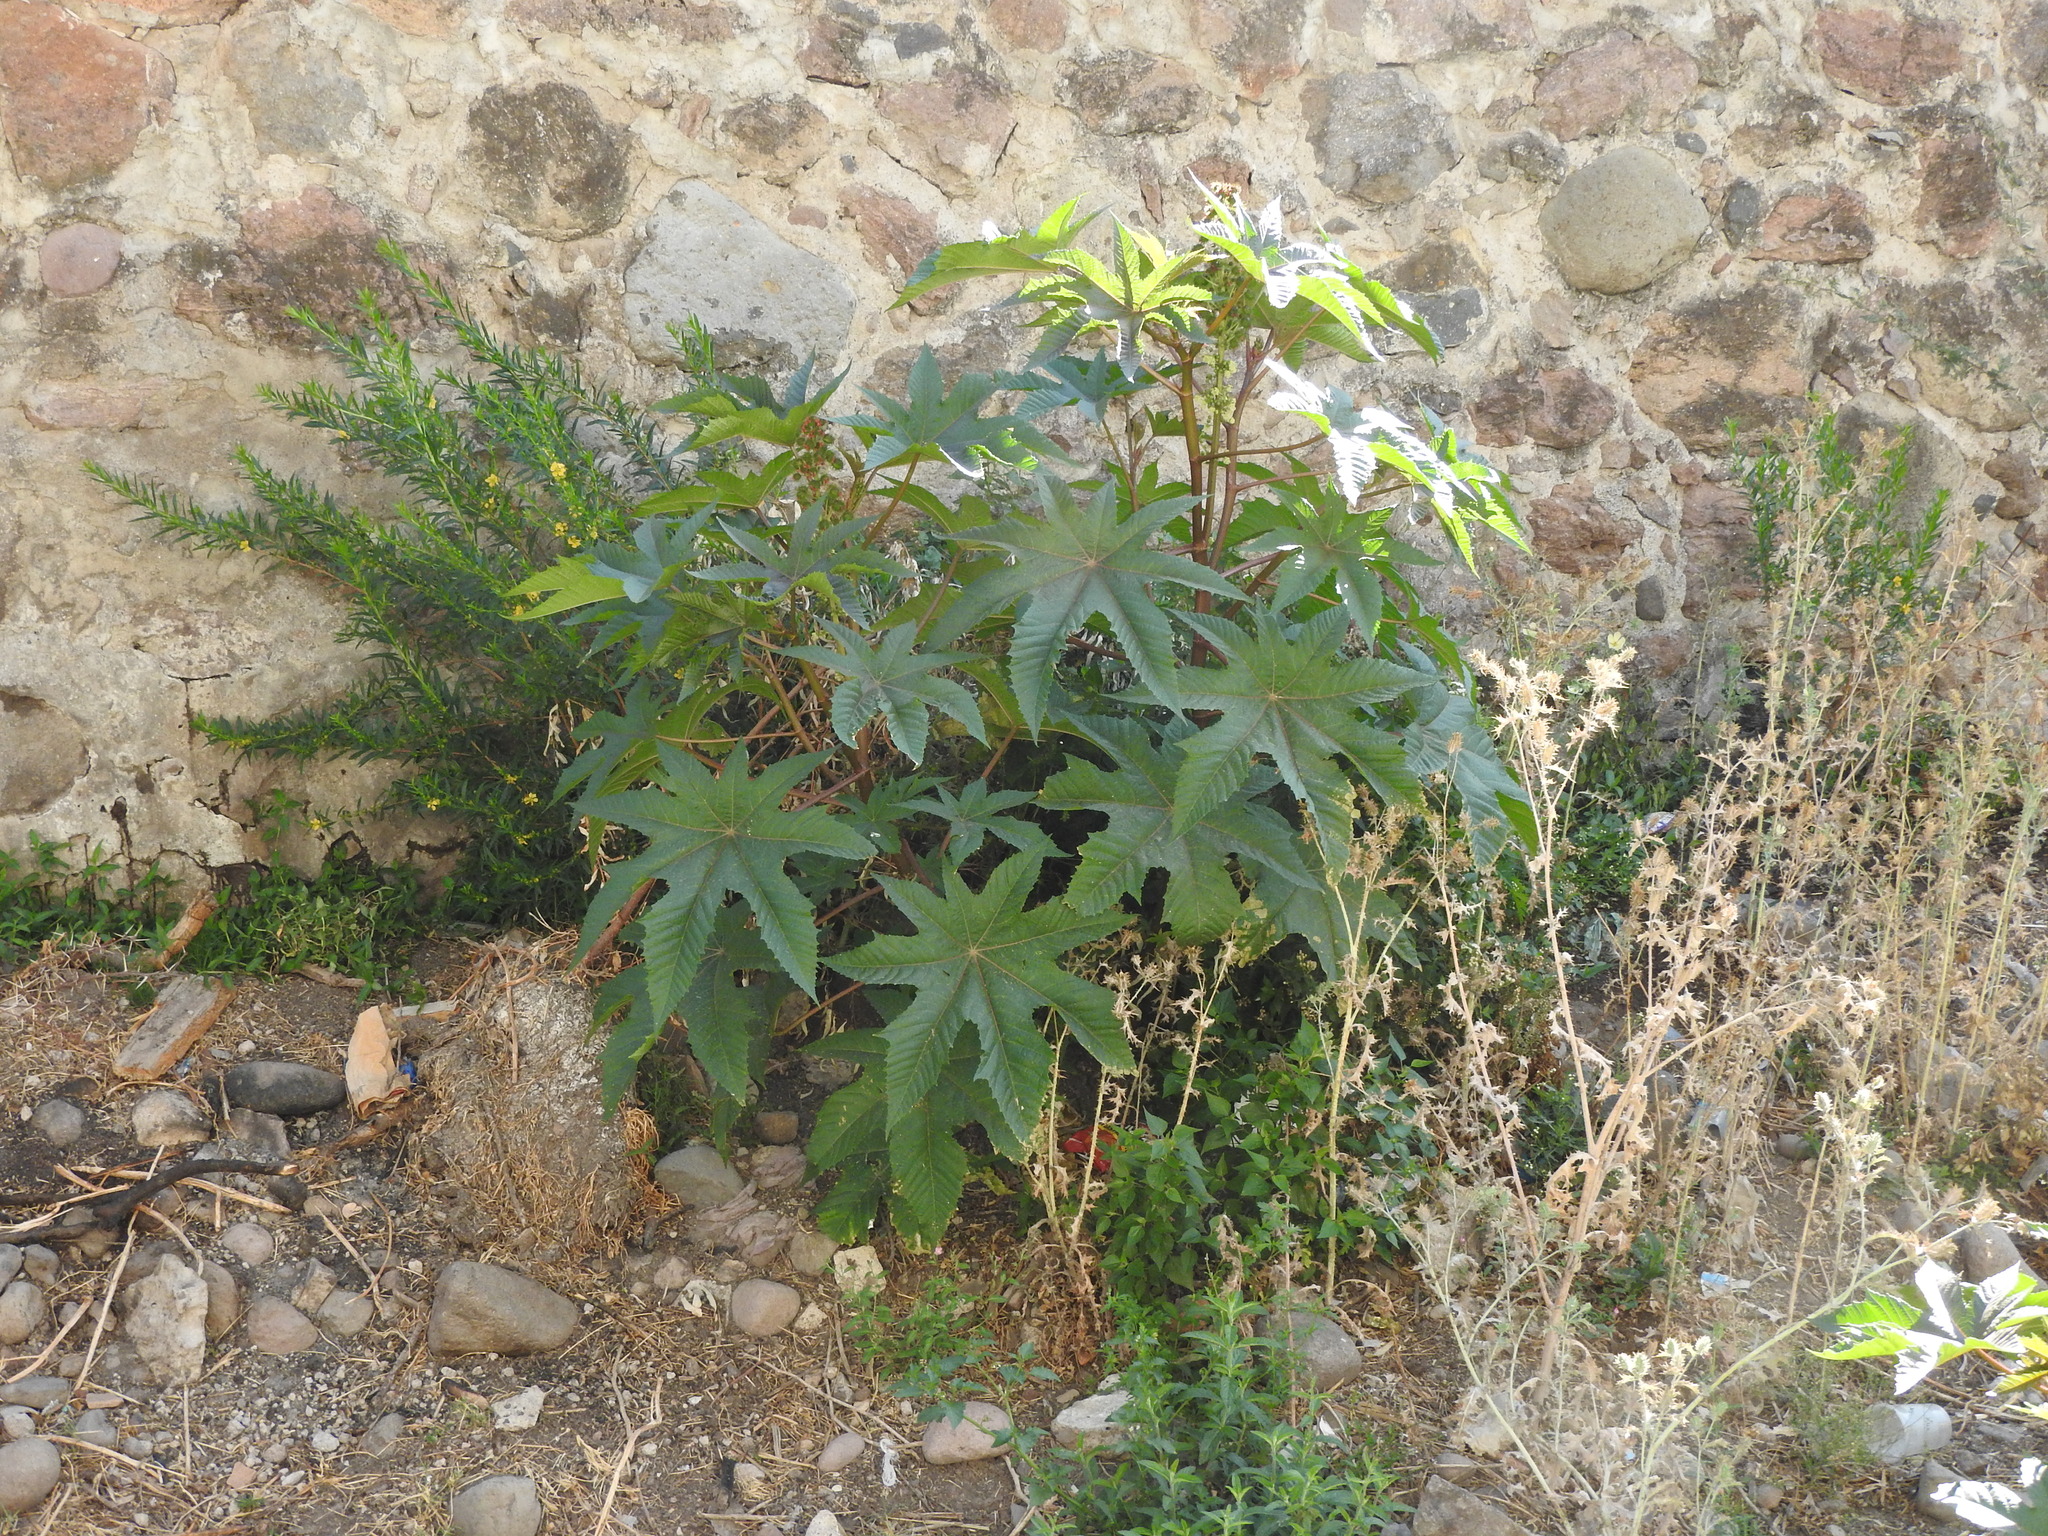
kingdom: Plantae
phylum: Tracheophyta
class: Magnoliopsida
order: Malpighiales
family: Euphorbiaceae
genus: Ricinus
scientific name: Ricinus communis
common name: Castor-oil-plant
